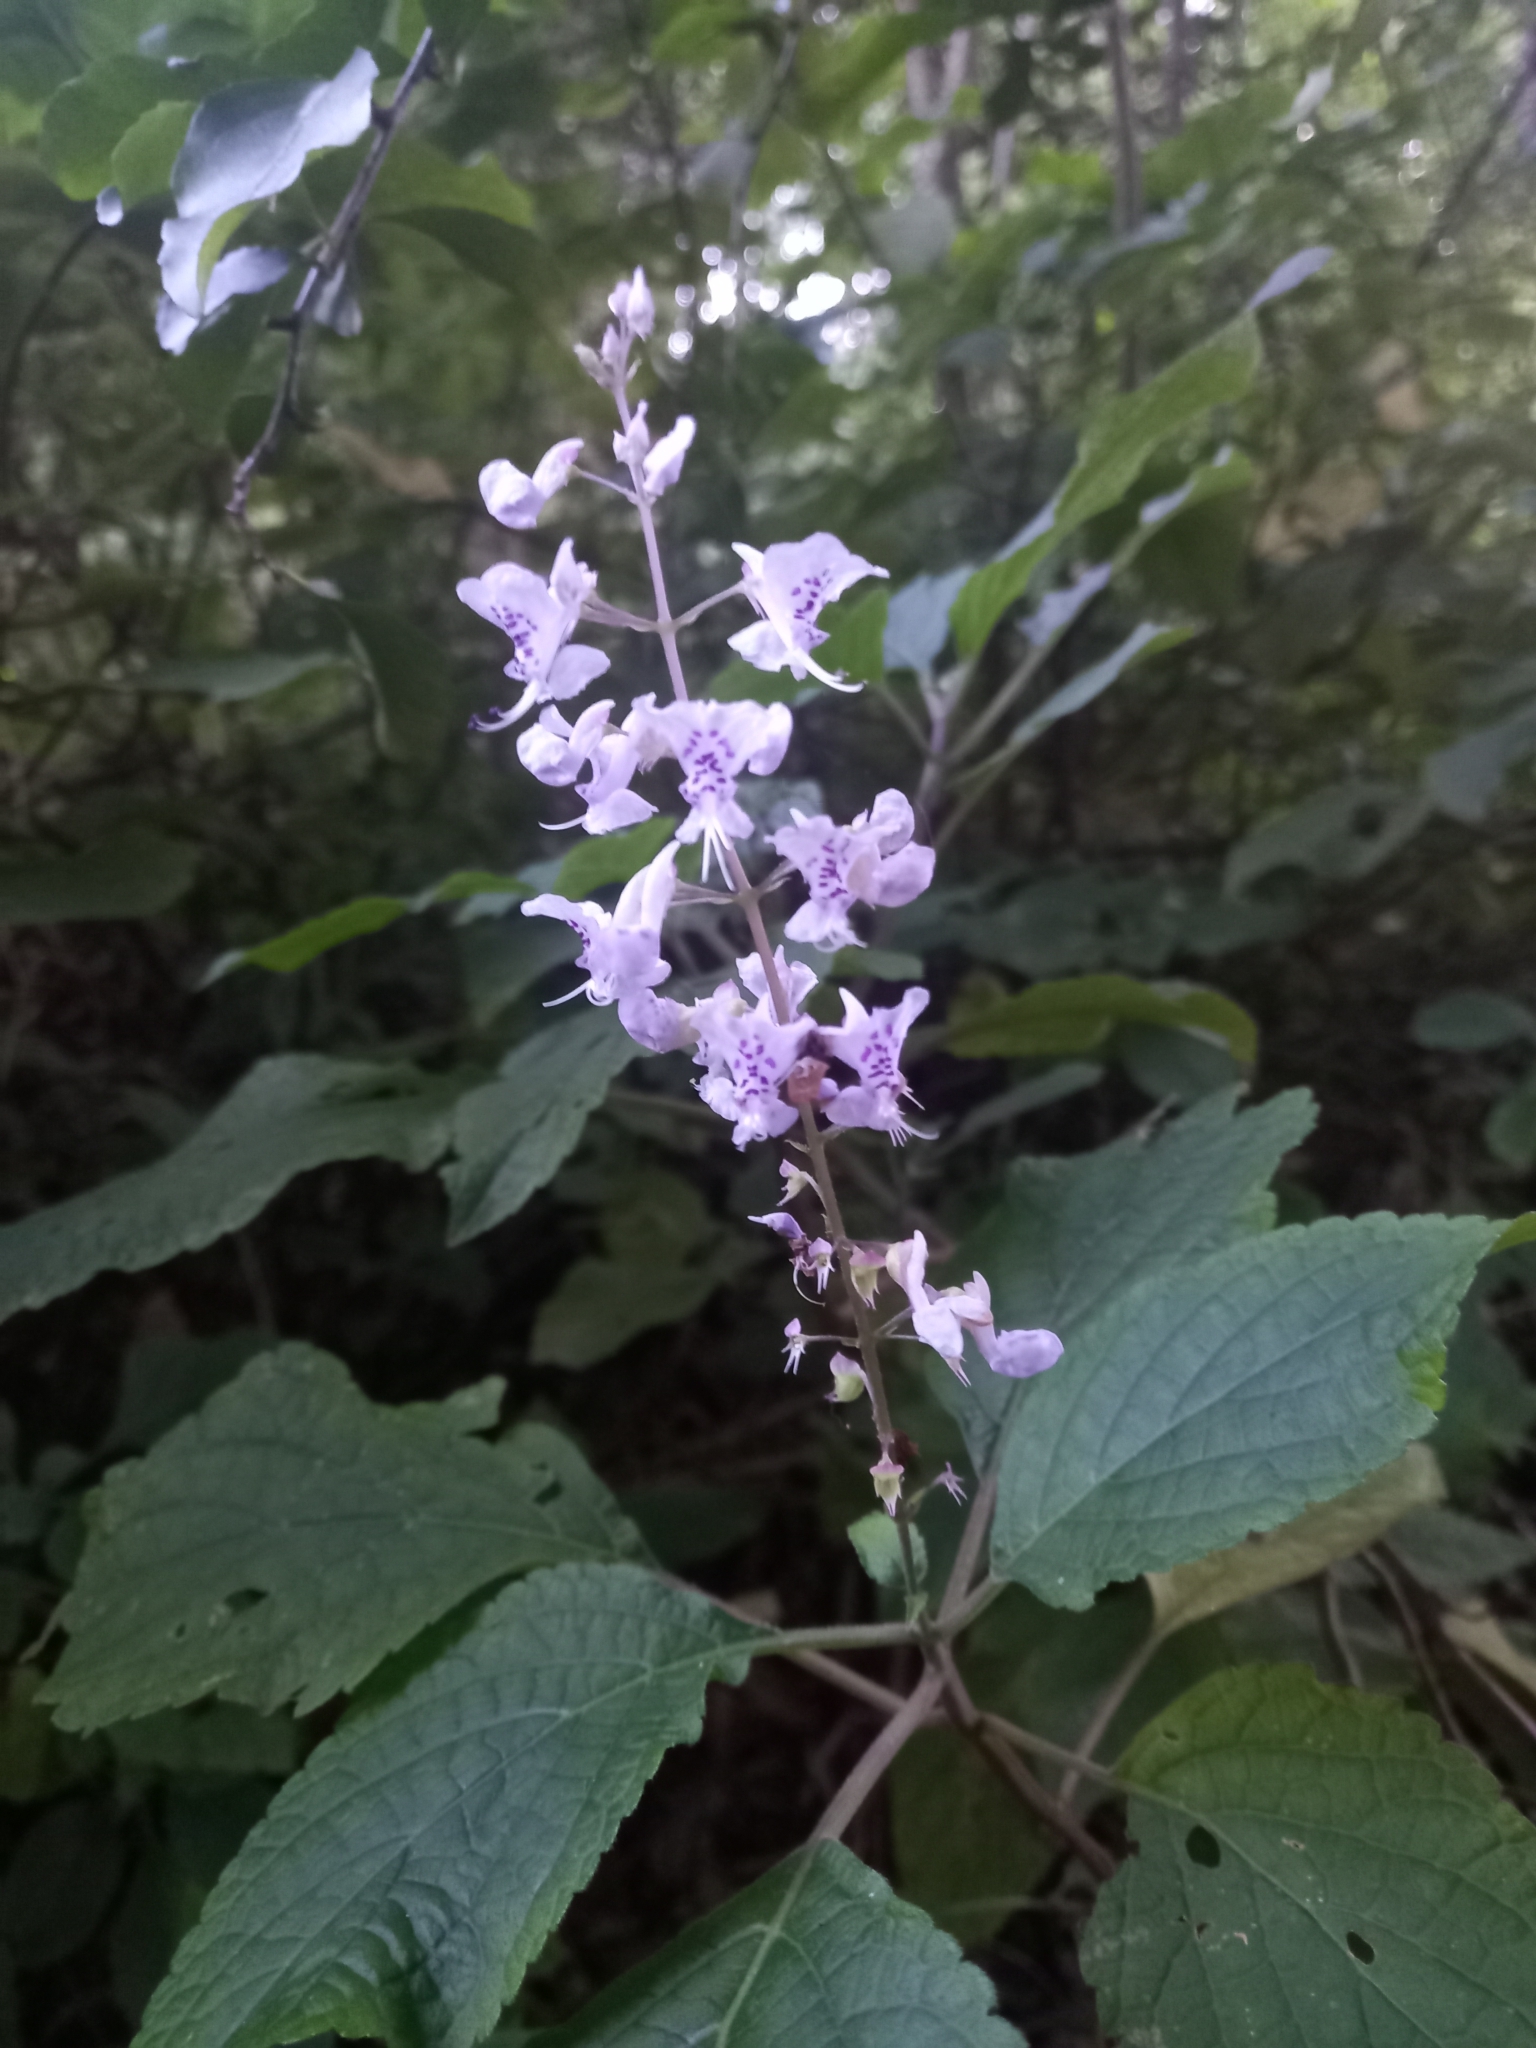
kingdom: Plantae
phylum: Tracheophyta
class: Magnoliopsida
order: Lamiales
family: Lamiaceae
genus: Plectranthus
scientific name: Plectranthus fruticosus
